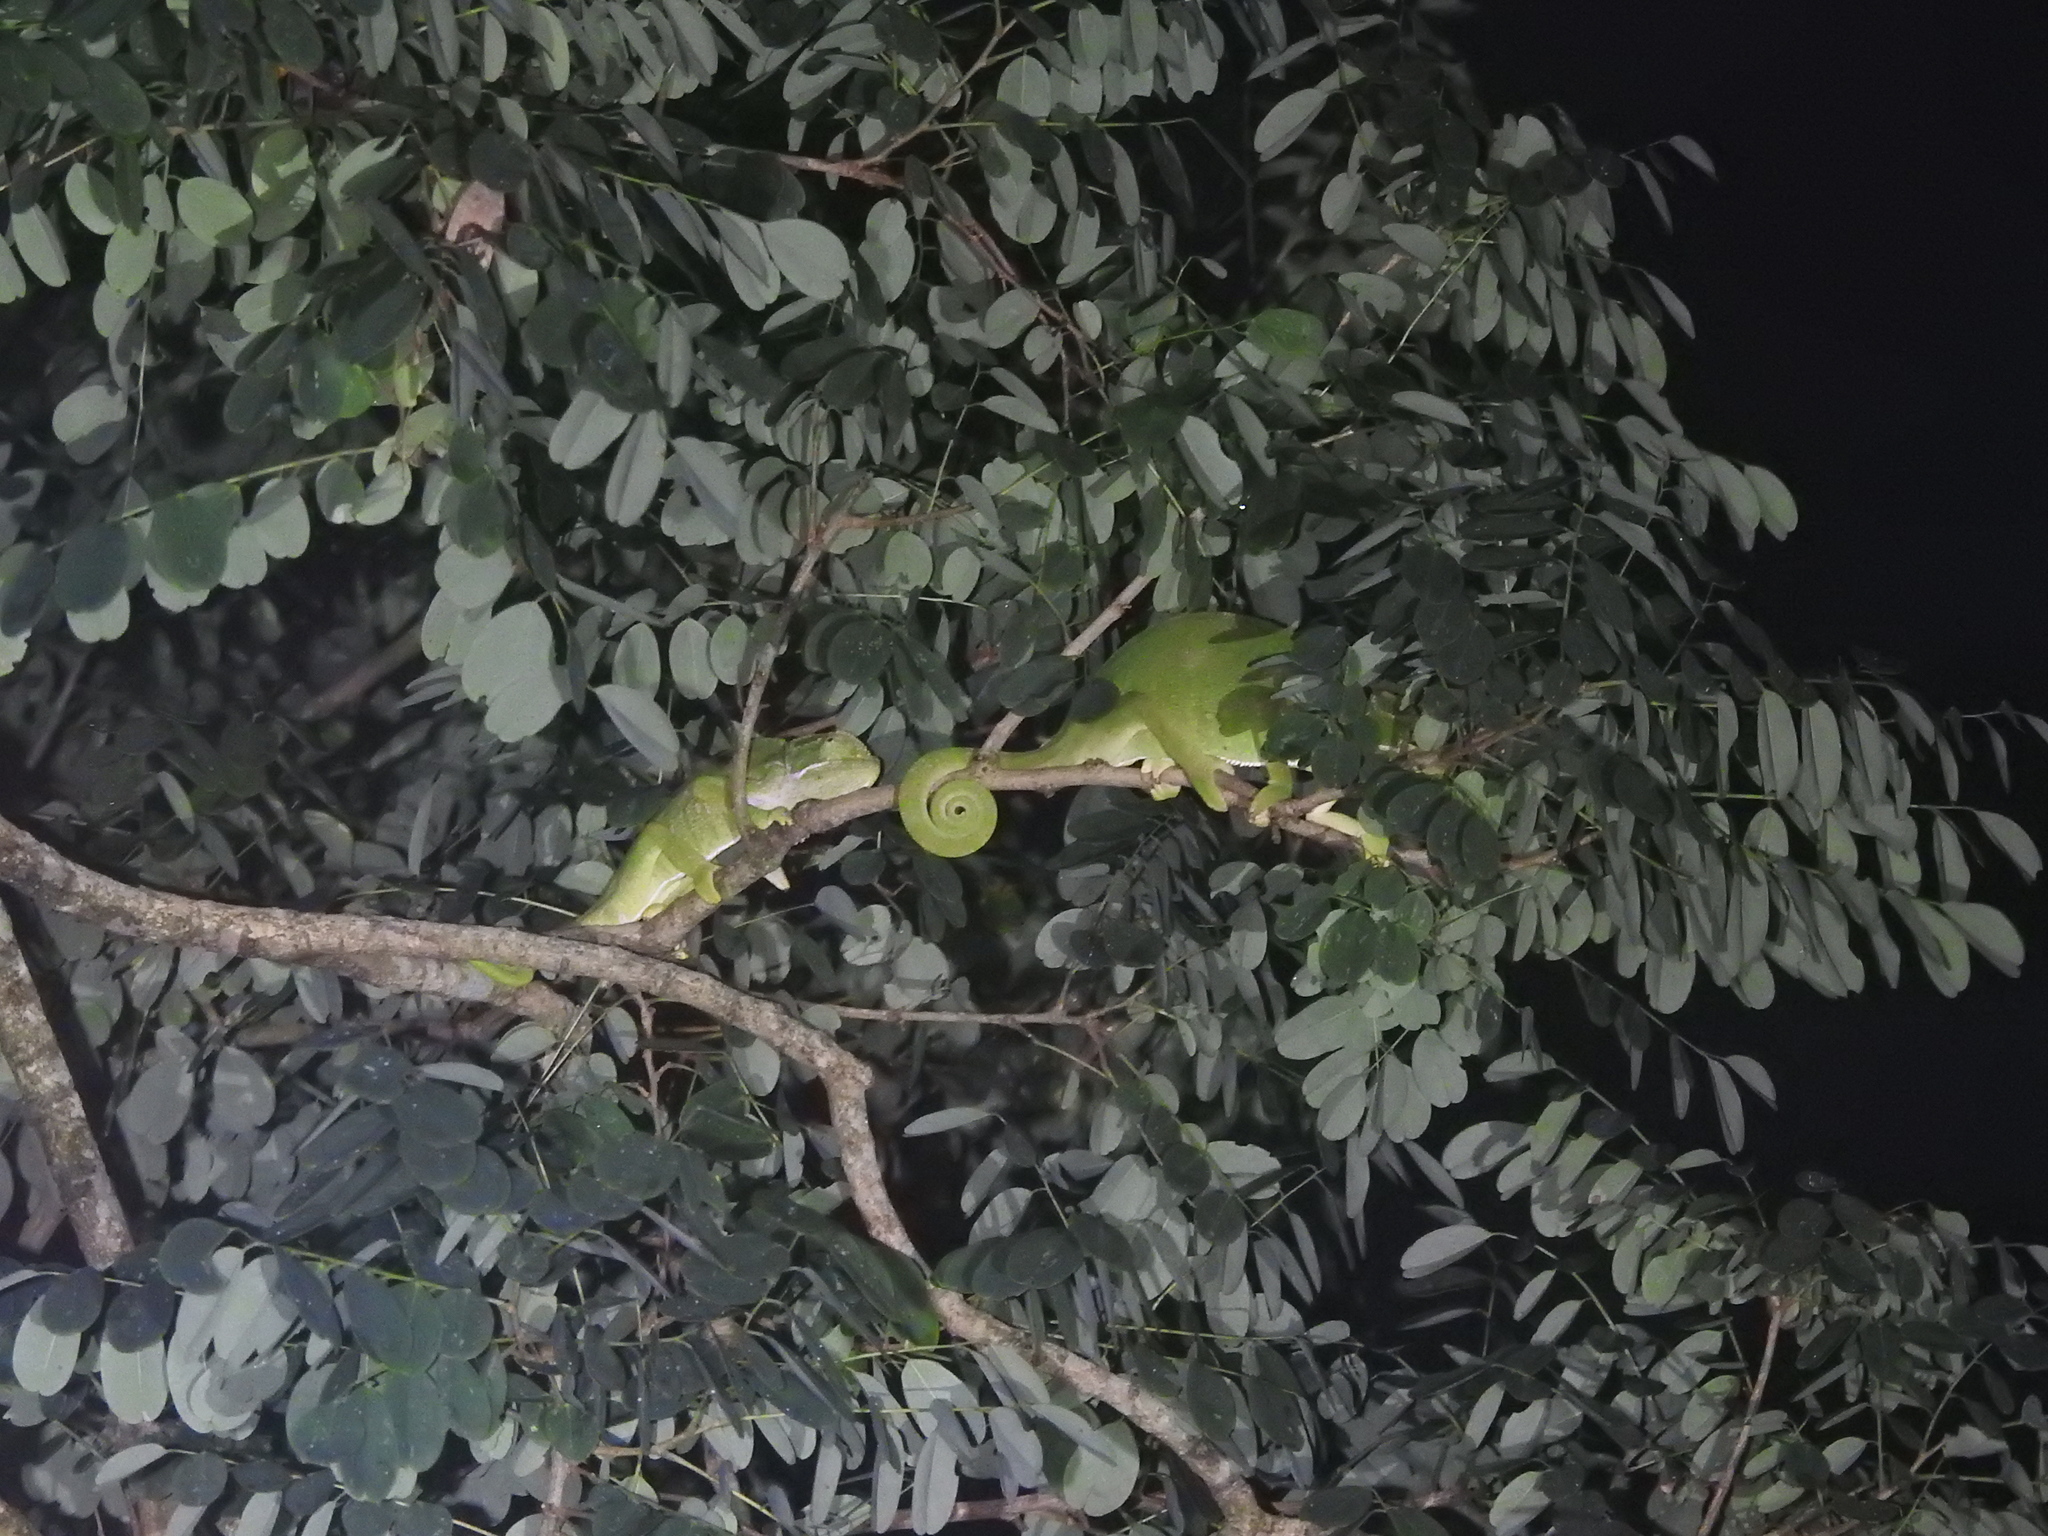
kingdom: Animalia
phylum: Chordata
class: Squamata
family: Chamaeleonidae
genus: Chamaeleo
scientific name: Chamaeleo zeylanicus
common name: Indian chameleon
